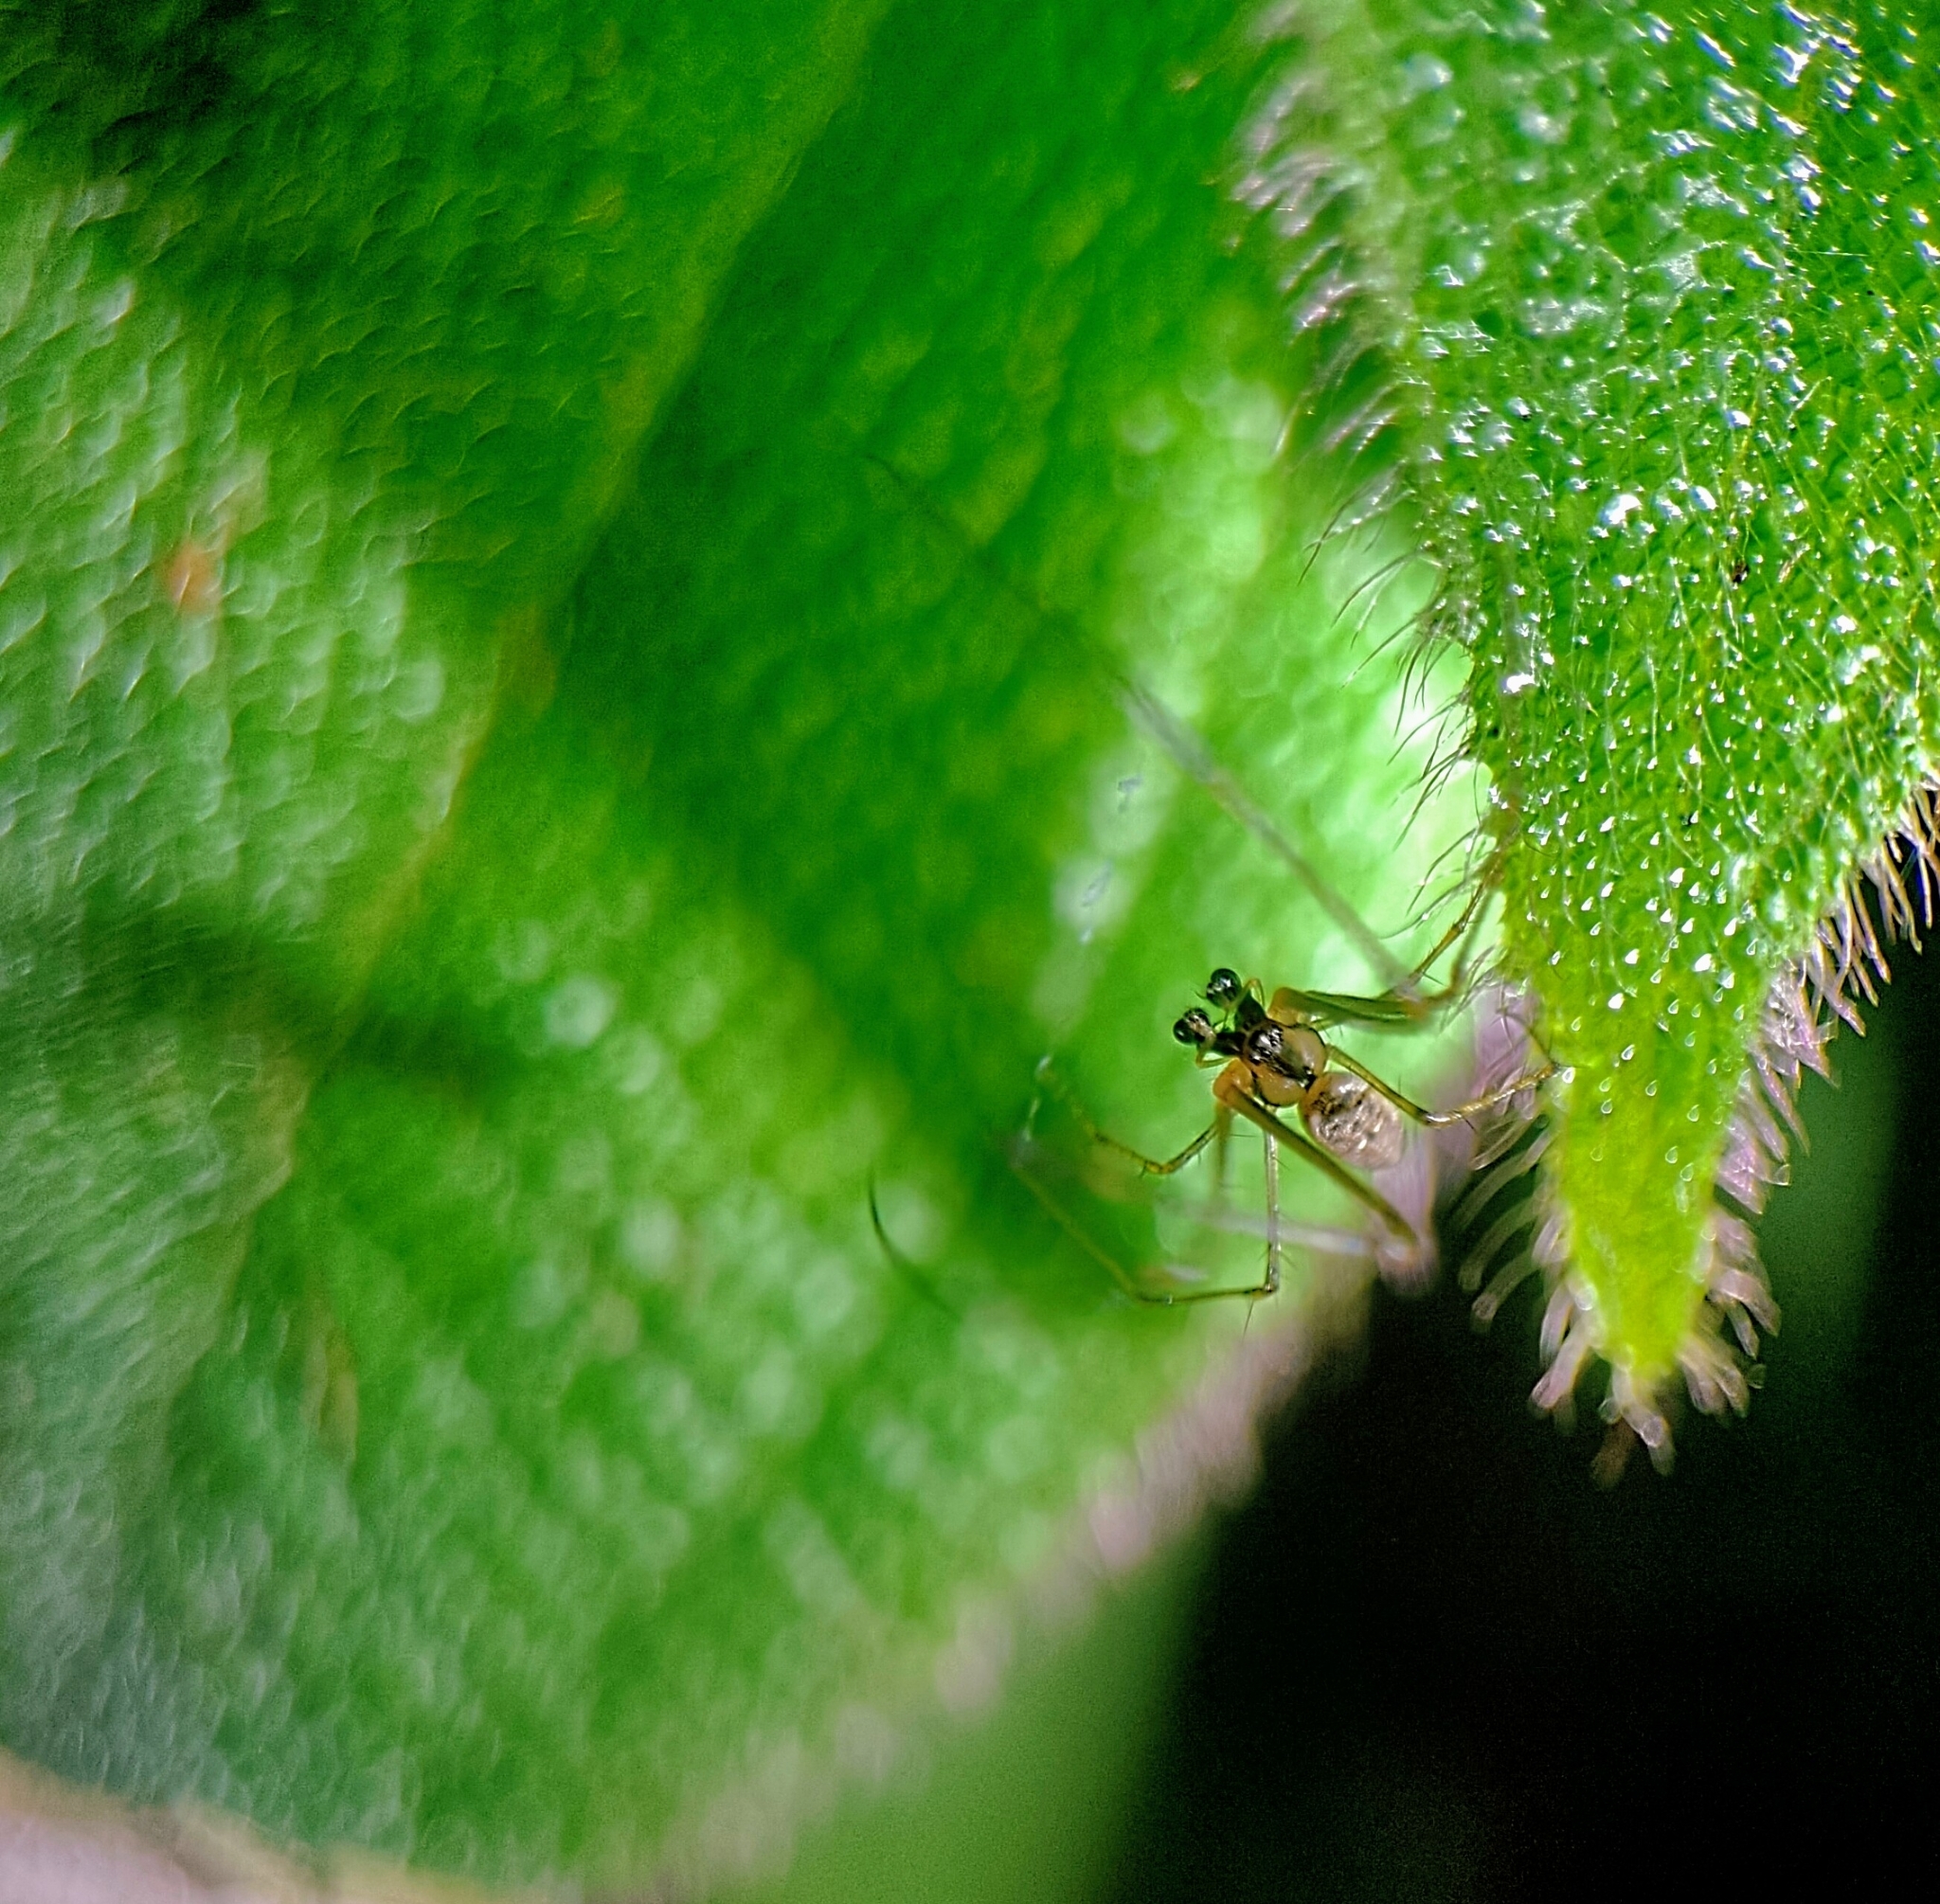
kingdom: Animalia
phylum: Arthropoda
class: Arachnida
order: Araneae
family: Tetragnathidae
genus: Tylorida
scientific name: Tylorida ventralis
